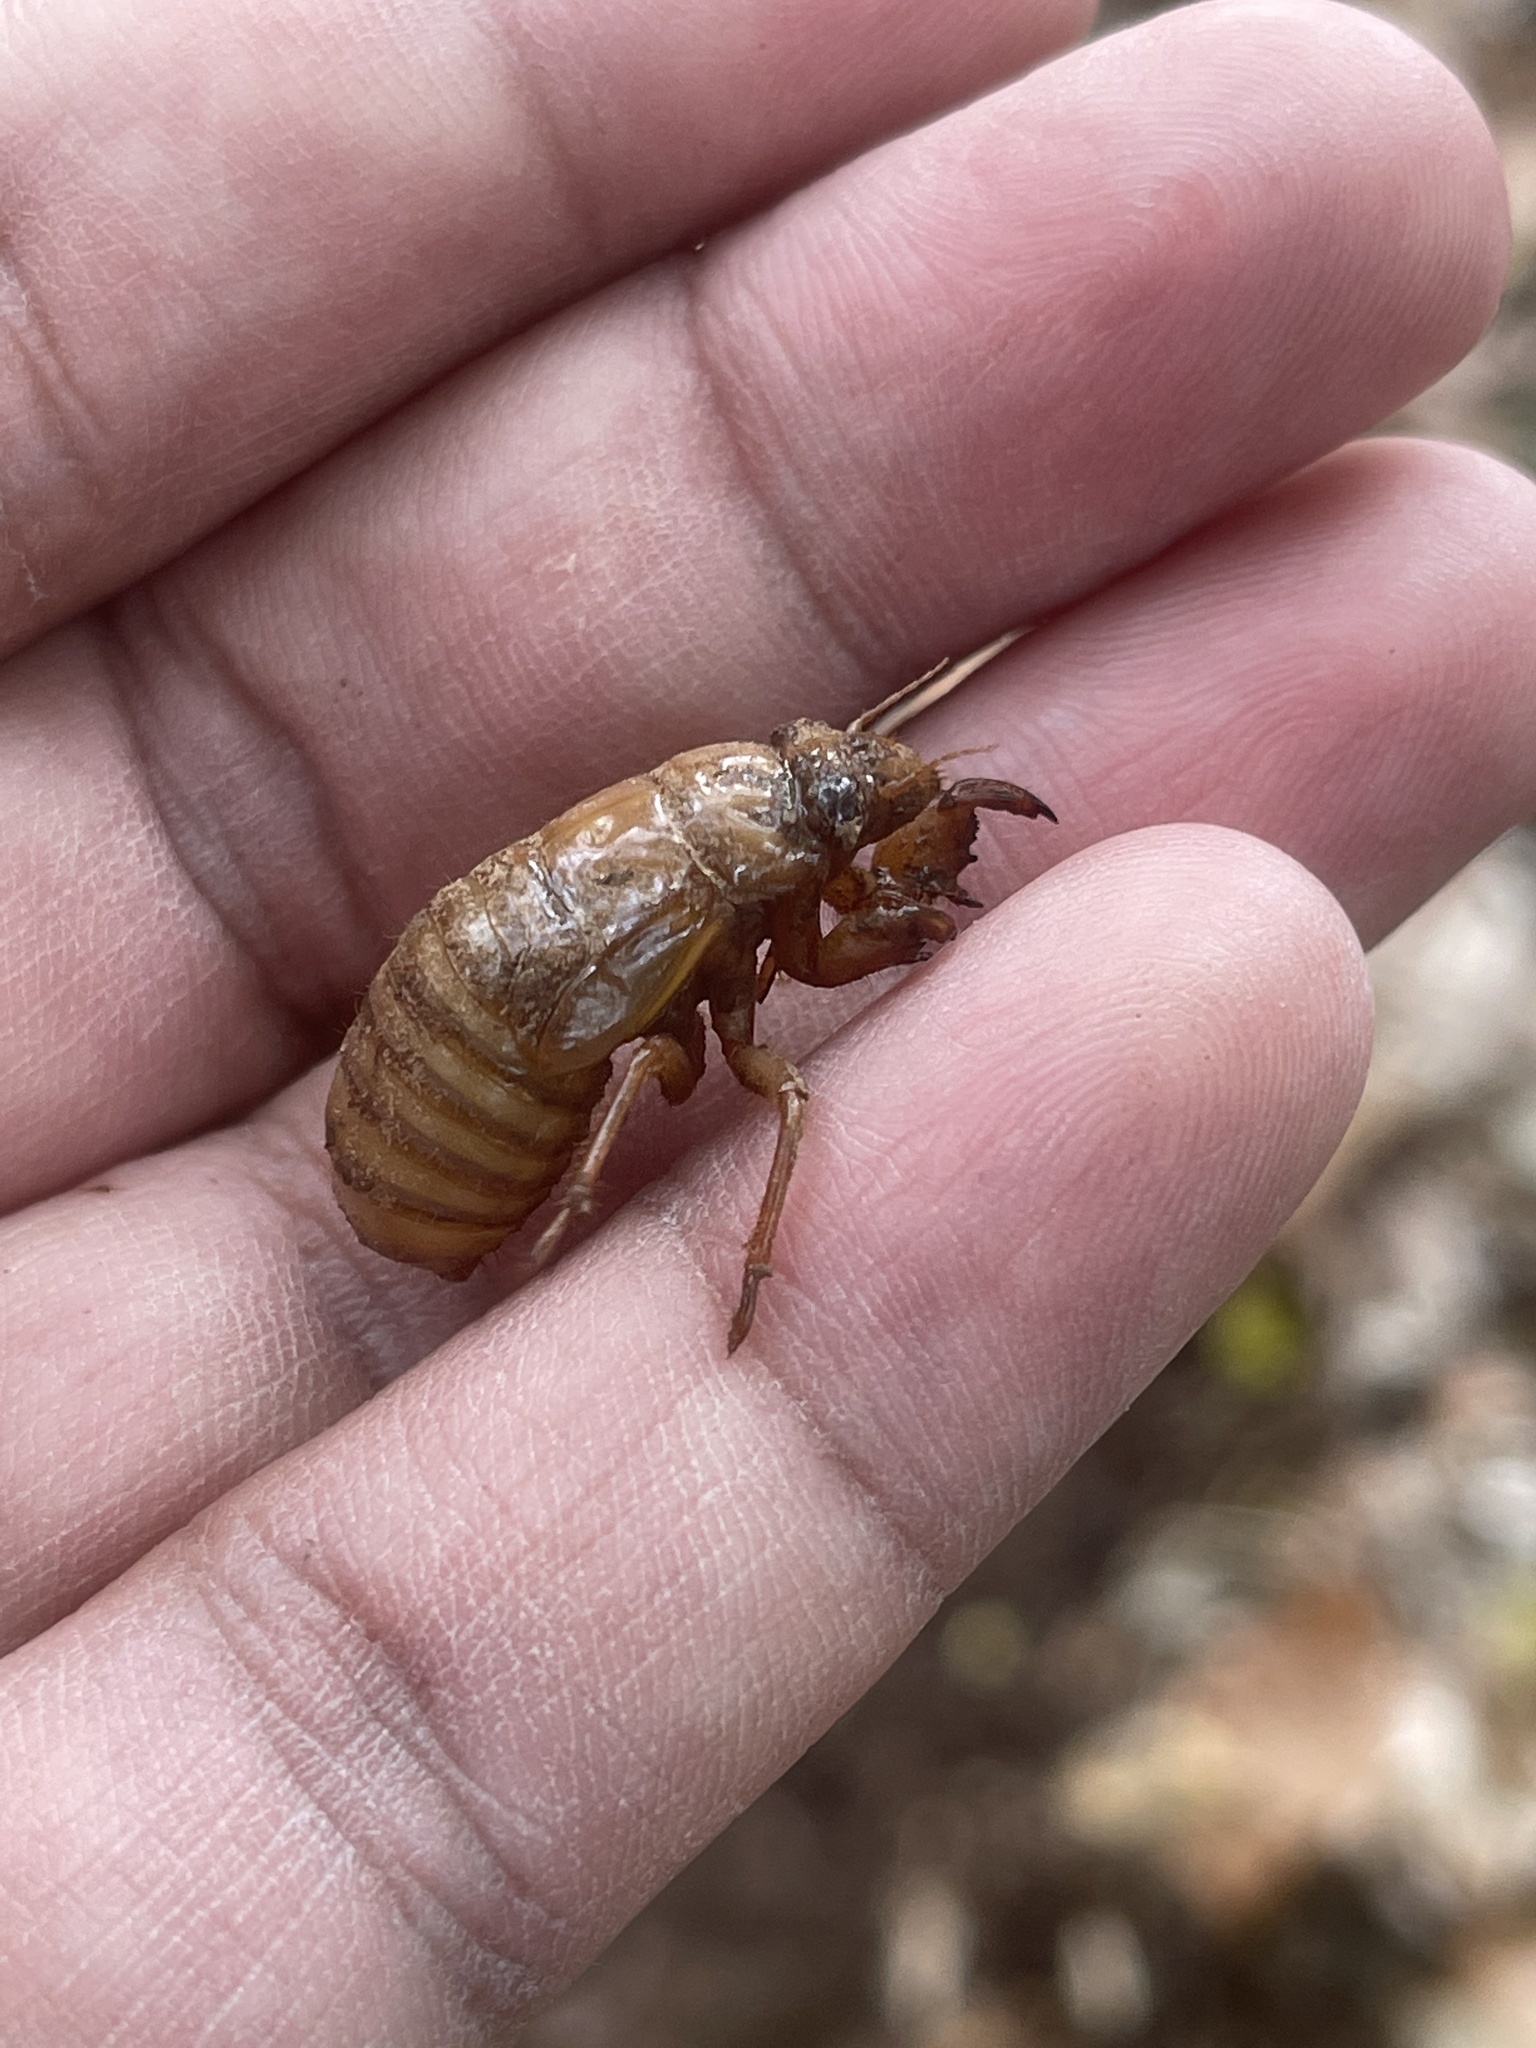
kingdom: Animalia
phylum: Arthropoda
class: Insecta
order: Hemiptera
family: Cicadidae
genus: Magicicada
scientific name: Magicicada
